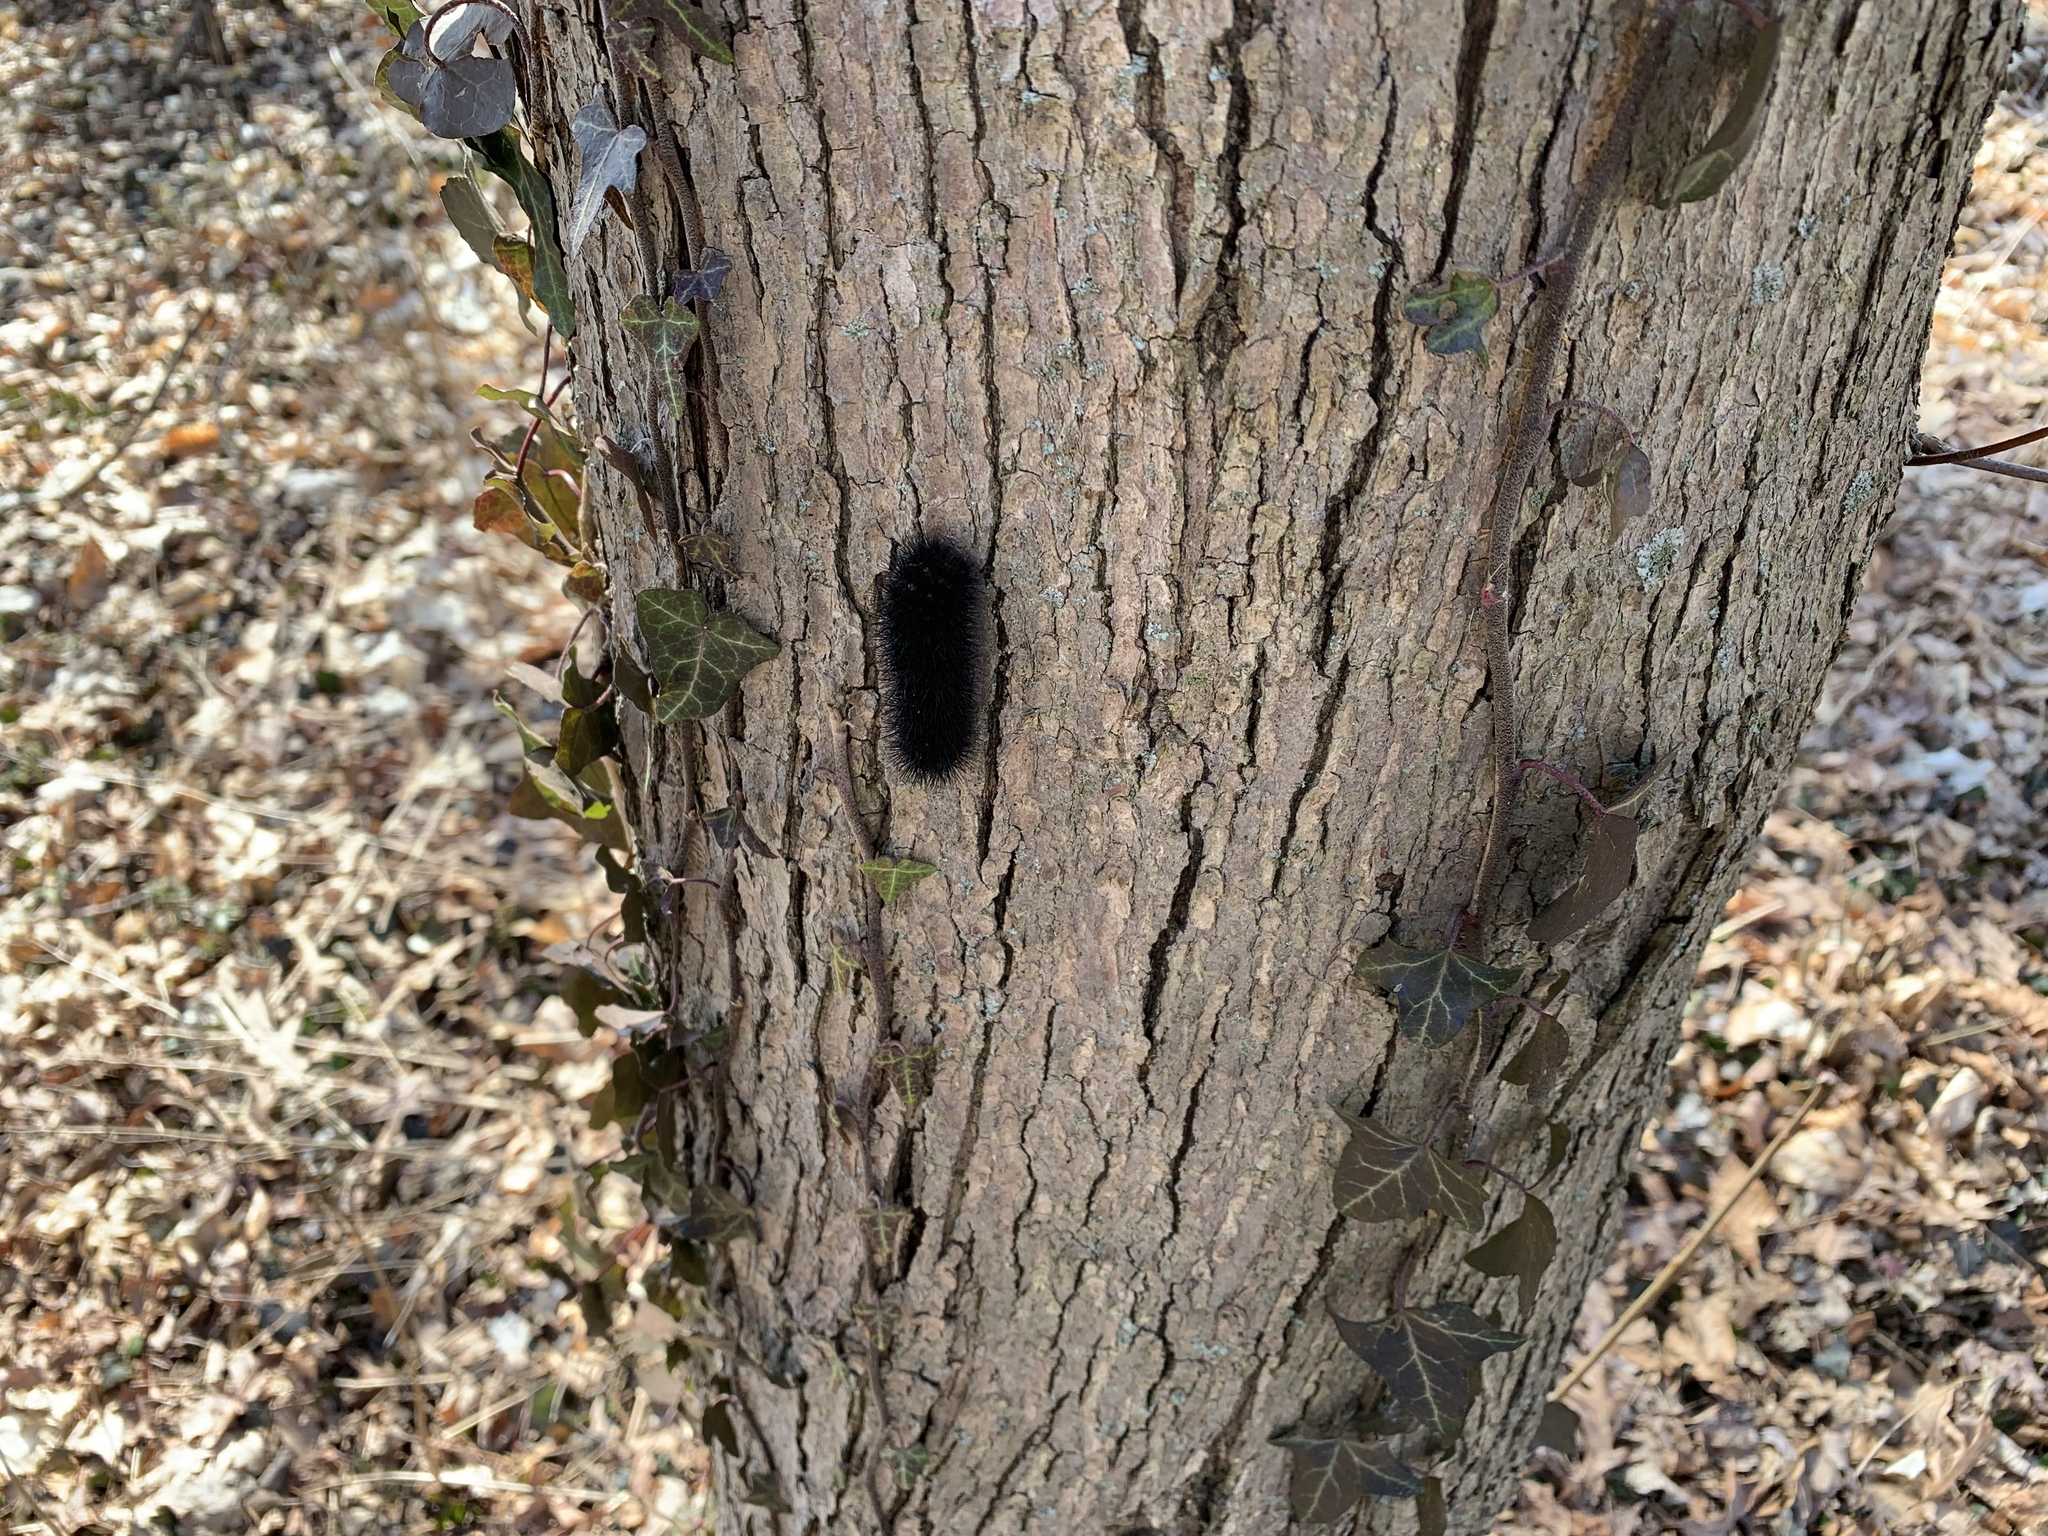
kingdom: Animalia
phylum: Arthropoda
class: Insecta
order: Lepidoptera
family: Erebidae
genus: Hypercompe
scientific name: Hypercompe scribonia
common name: Giant leopard moth
